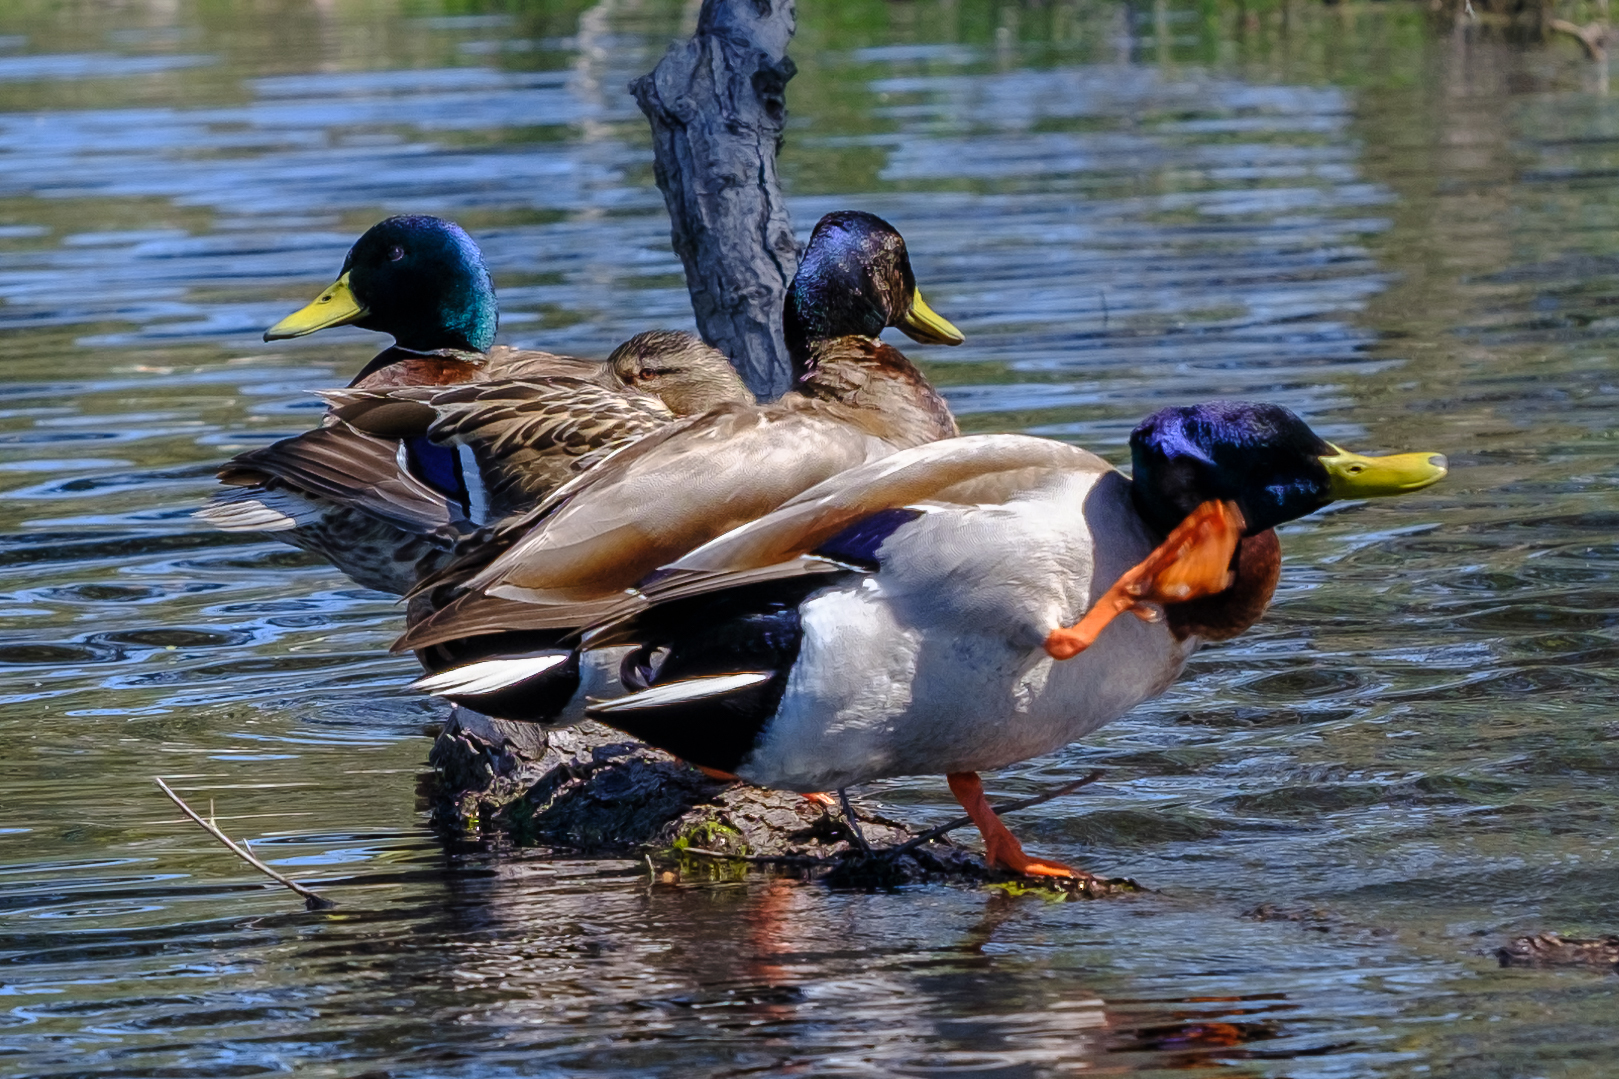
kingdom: Animalia
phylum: Chordata
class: Aves
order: Anseriformes
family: Anatidae
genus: Anas
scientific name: Anas platyrhynchos
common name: Mallard
